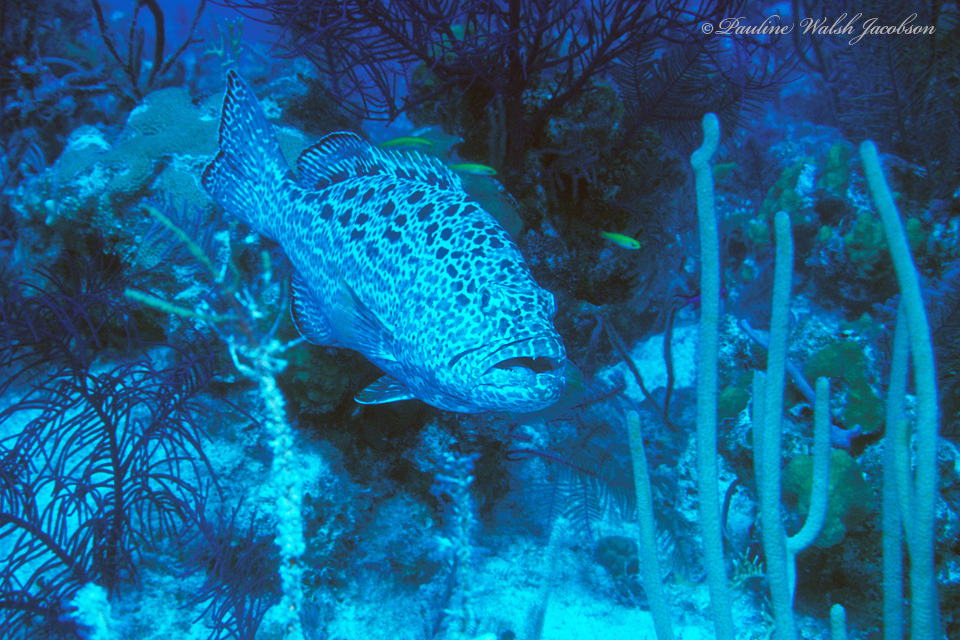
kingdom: Animalia
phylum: Chordata
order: Perciformes
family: Serranidae
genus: Mycteroperca
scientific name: Mycteroperca venenosa
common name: Yellowfin grouper
